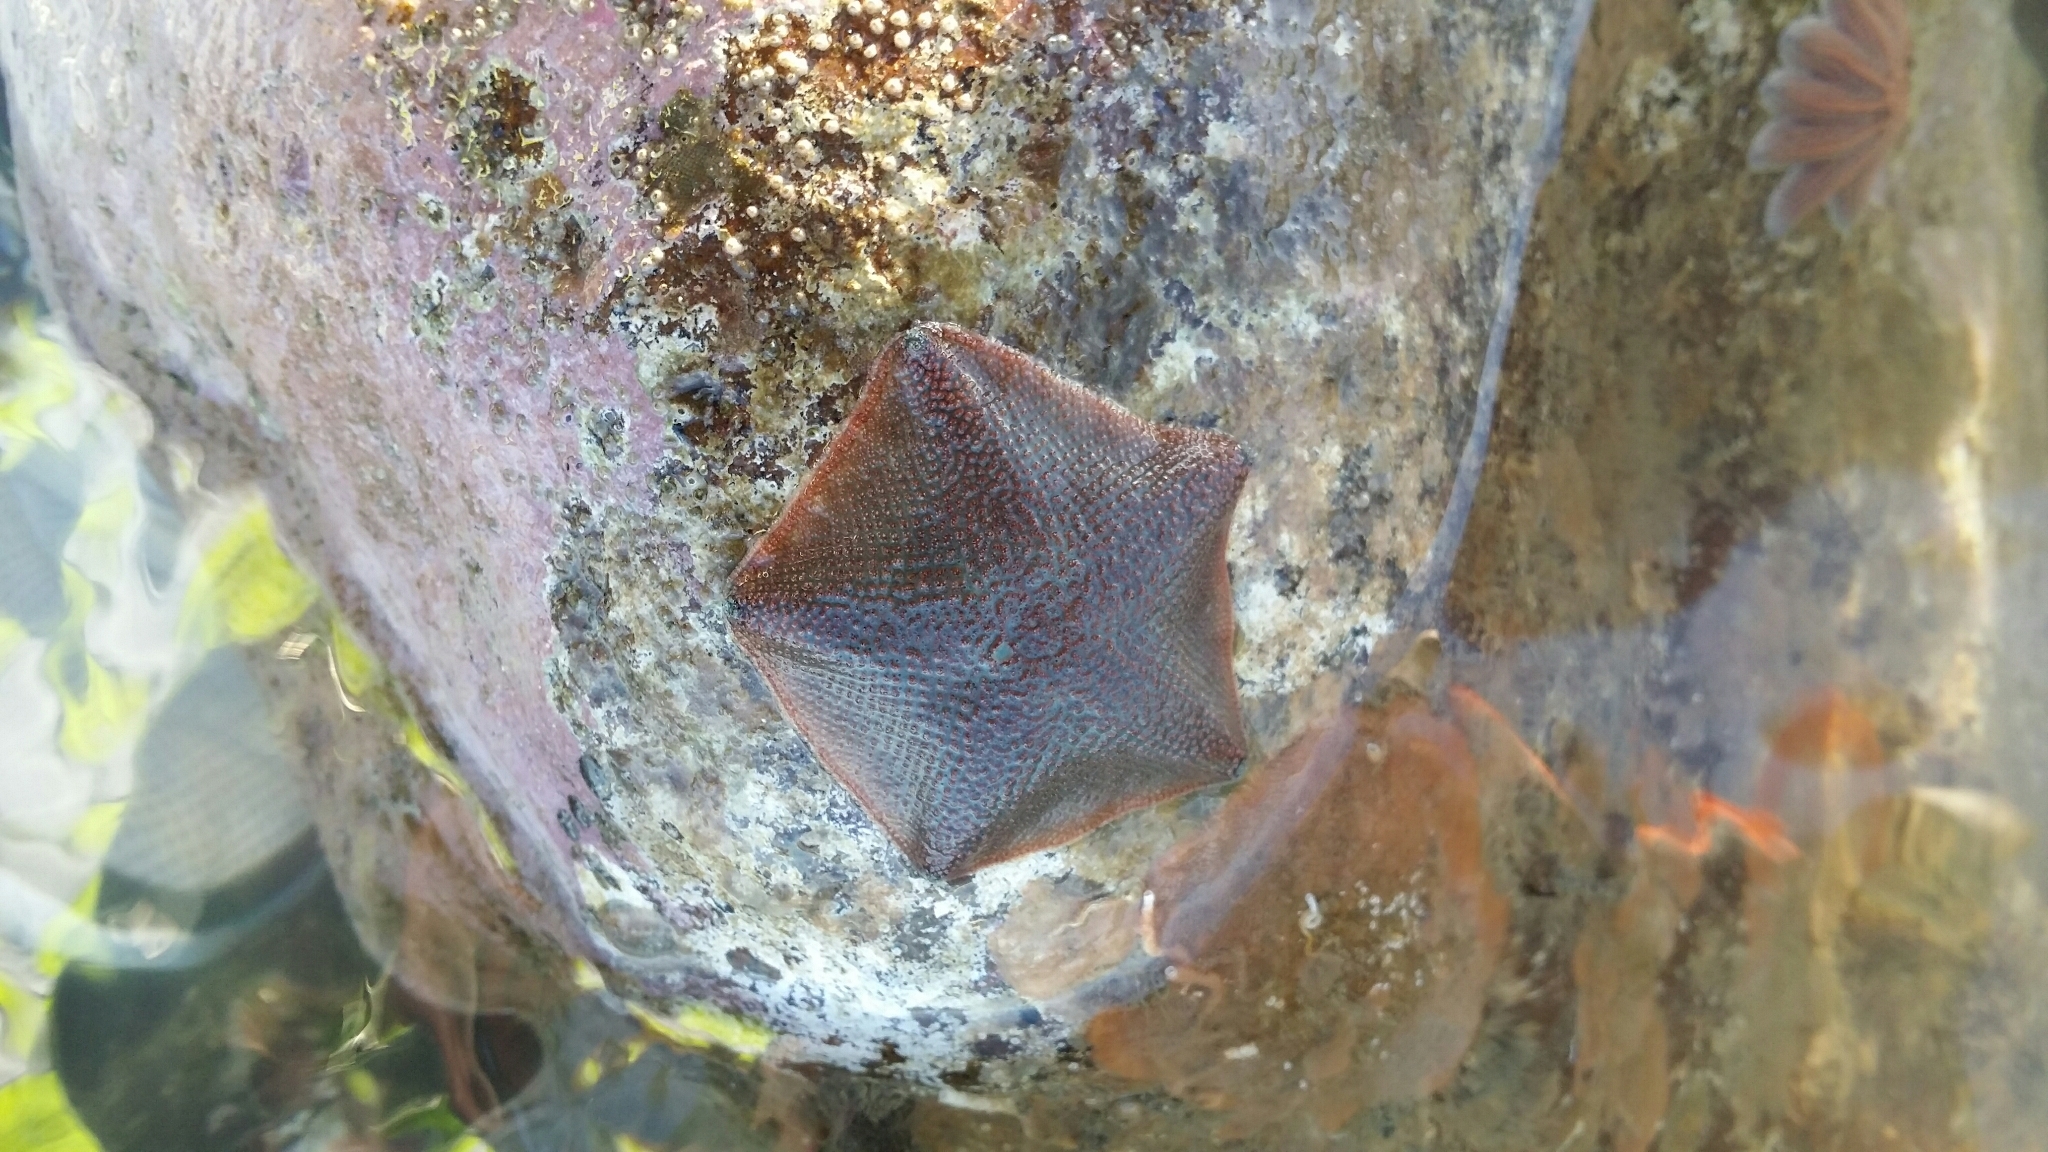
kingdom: Animalia
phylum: Echinodermata
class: Asteroidea
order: Valvatida
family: Asterinidae
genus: Patiriella
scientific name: Patiriella regularis
